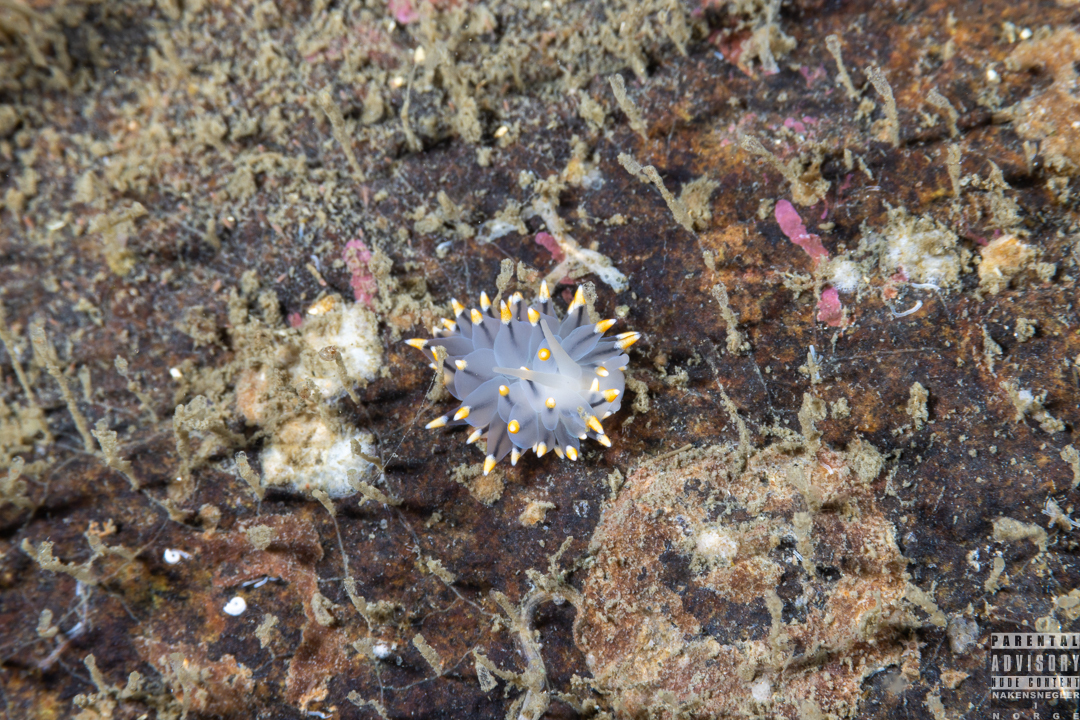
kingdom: Animalia
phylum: Mollusca
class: Gastropoda
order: Nudibranchia
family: Eubranchidae
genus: Eubranchus
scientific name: Eubranchus tricolor
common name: Painted balloon aeolis
